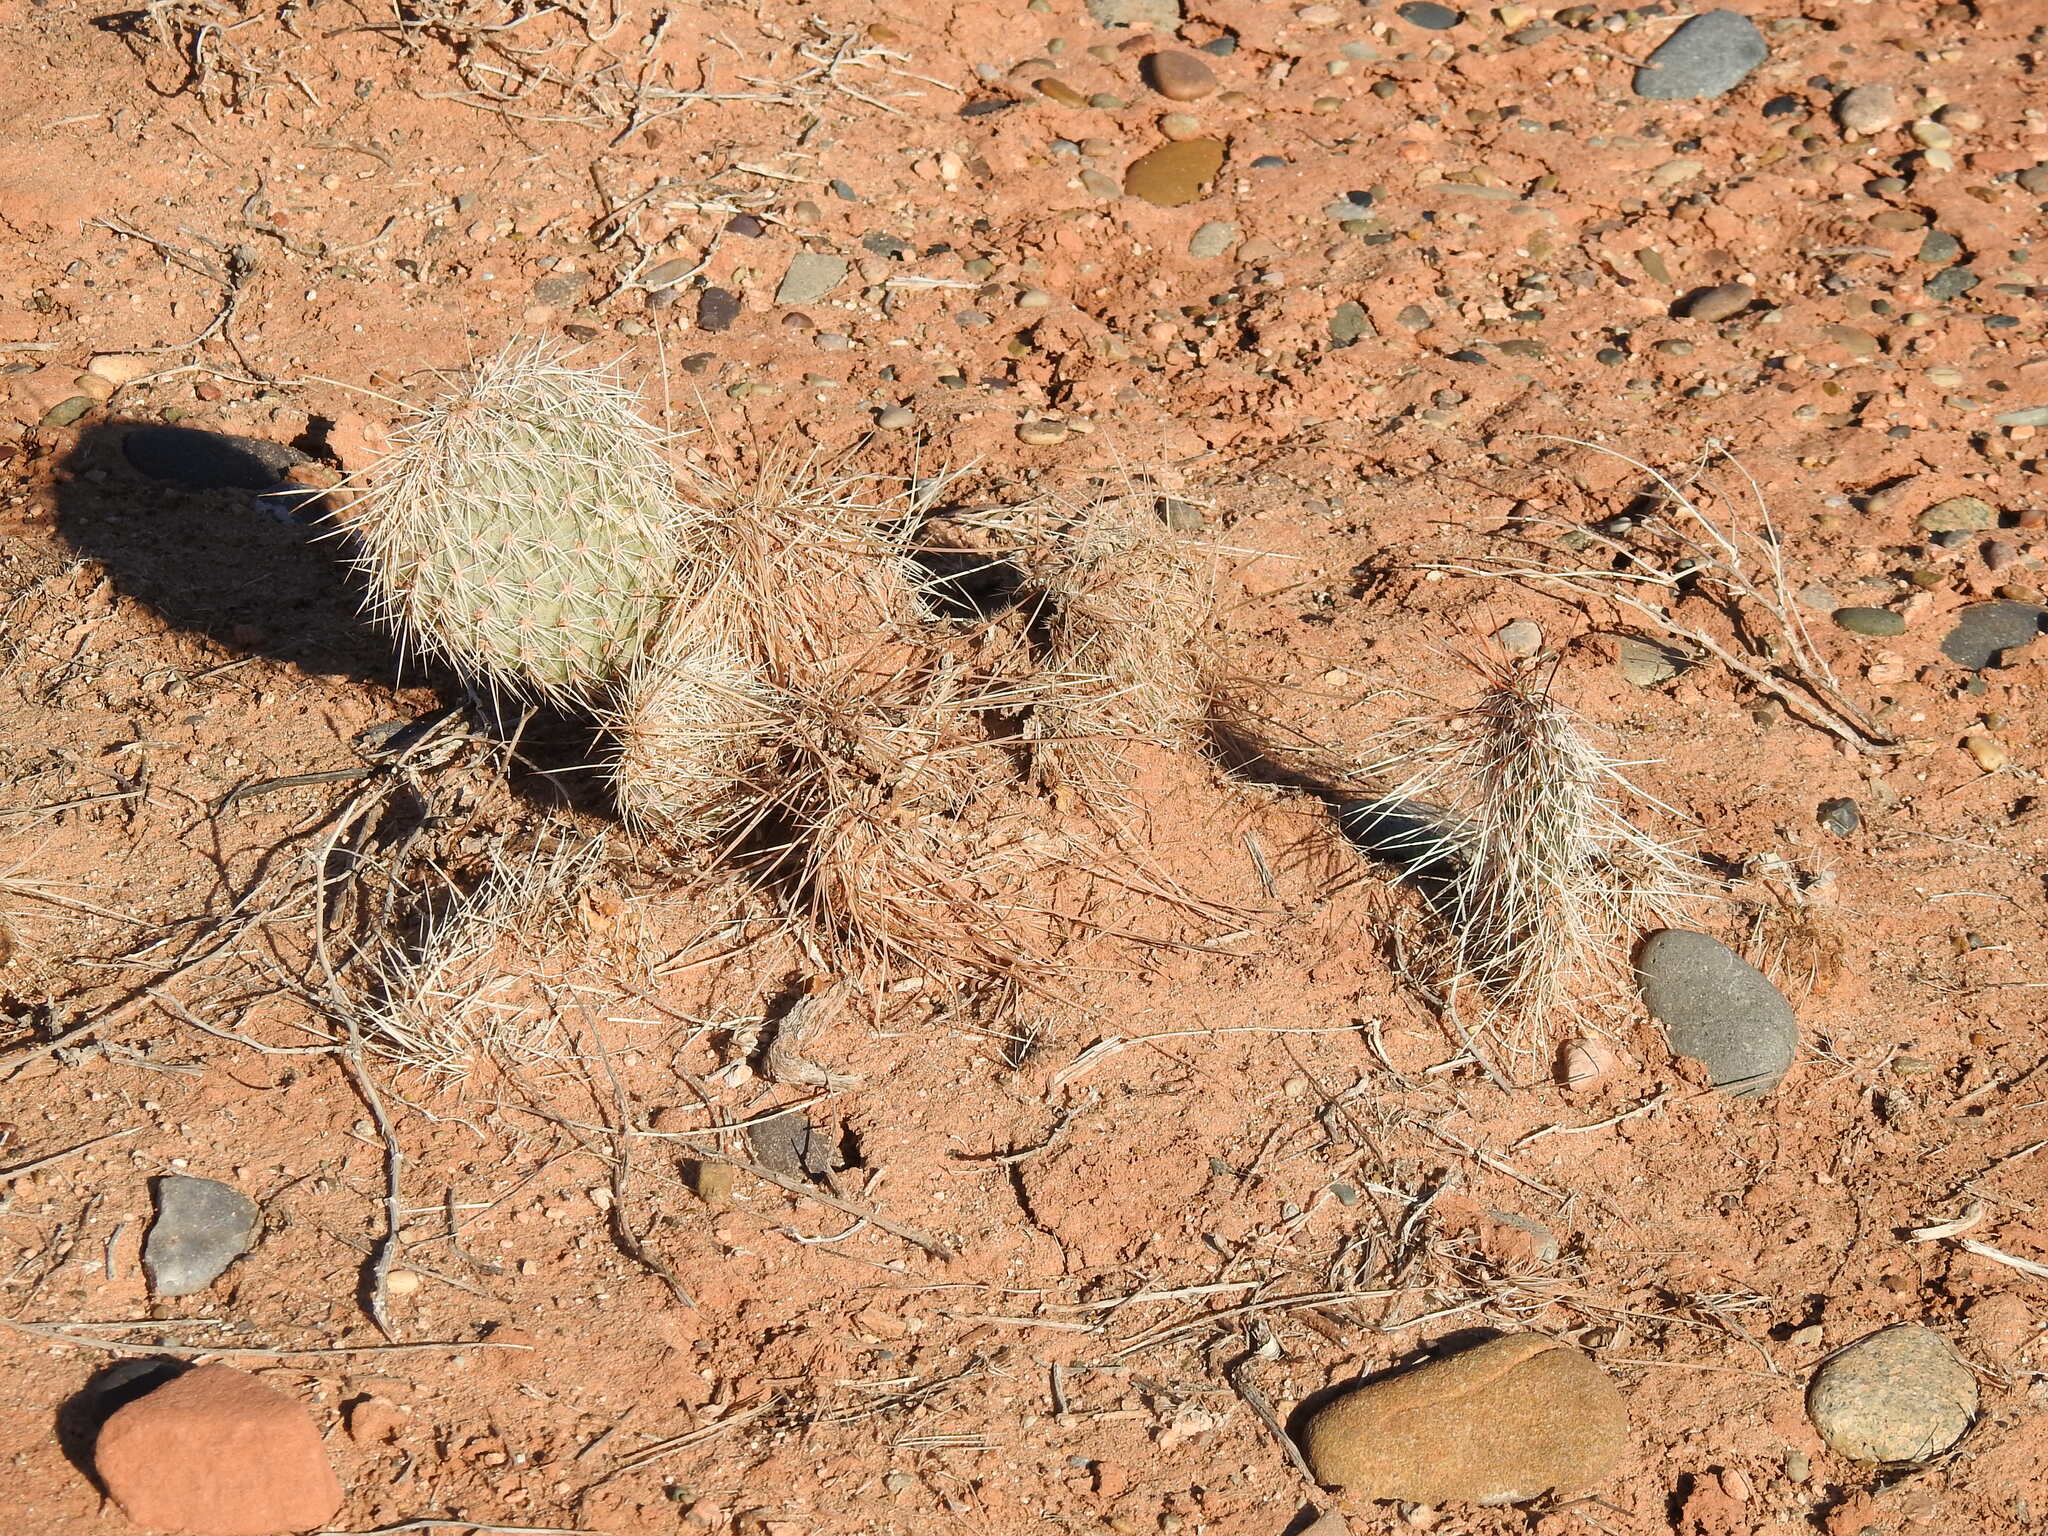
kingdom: Plantae
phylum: Tracheophyta
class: Magnoliopsida
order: Caryophyllales
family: Cactaceae
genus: Opuntia
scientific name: Opuntia polyacantha
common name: Plains prickly-pear
